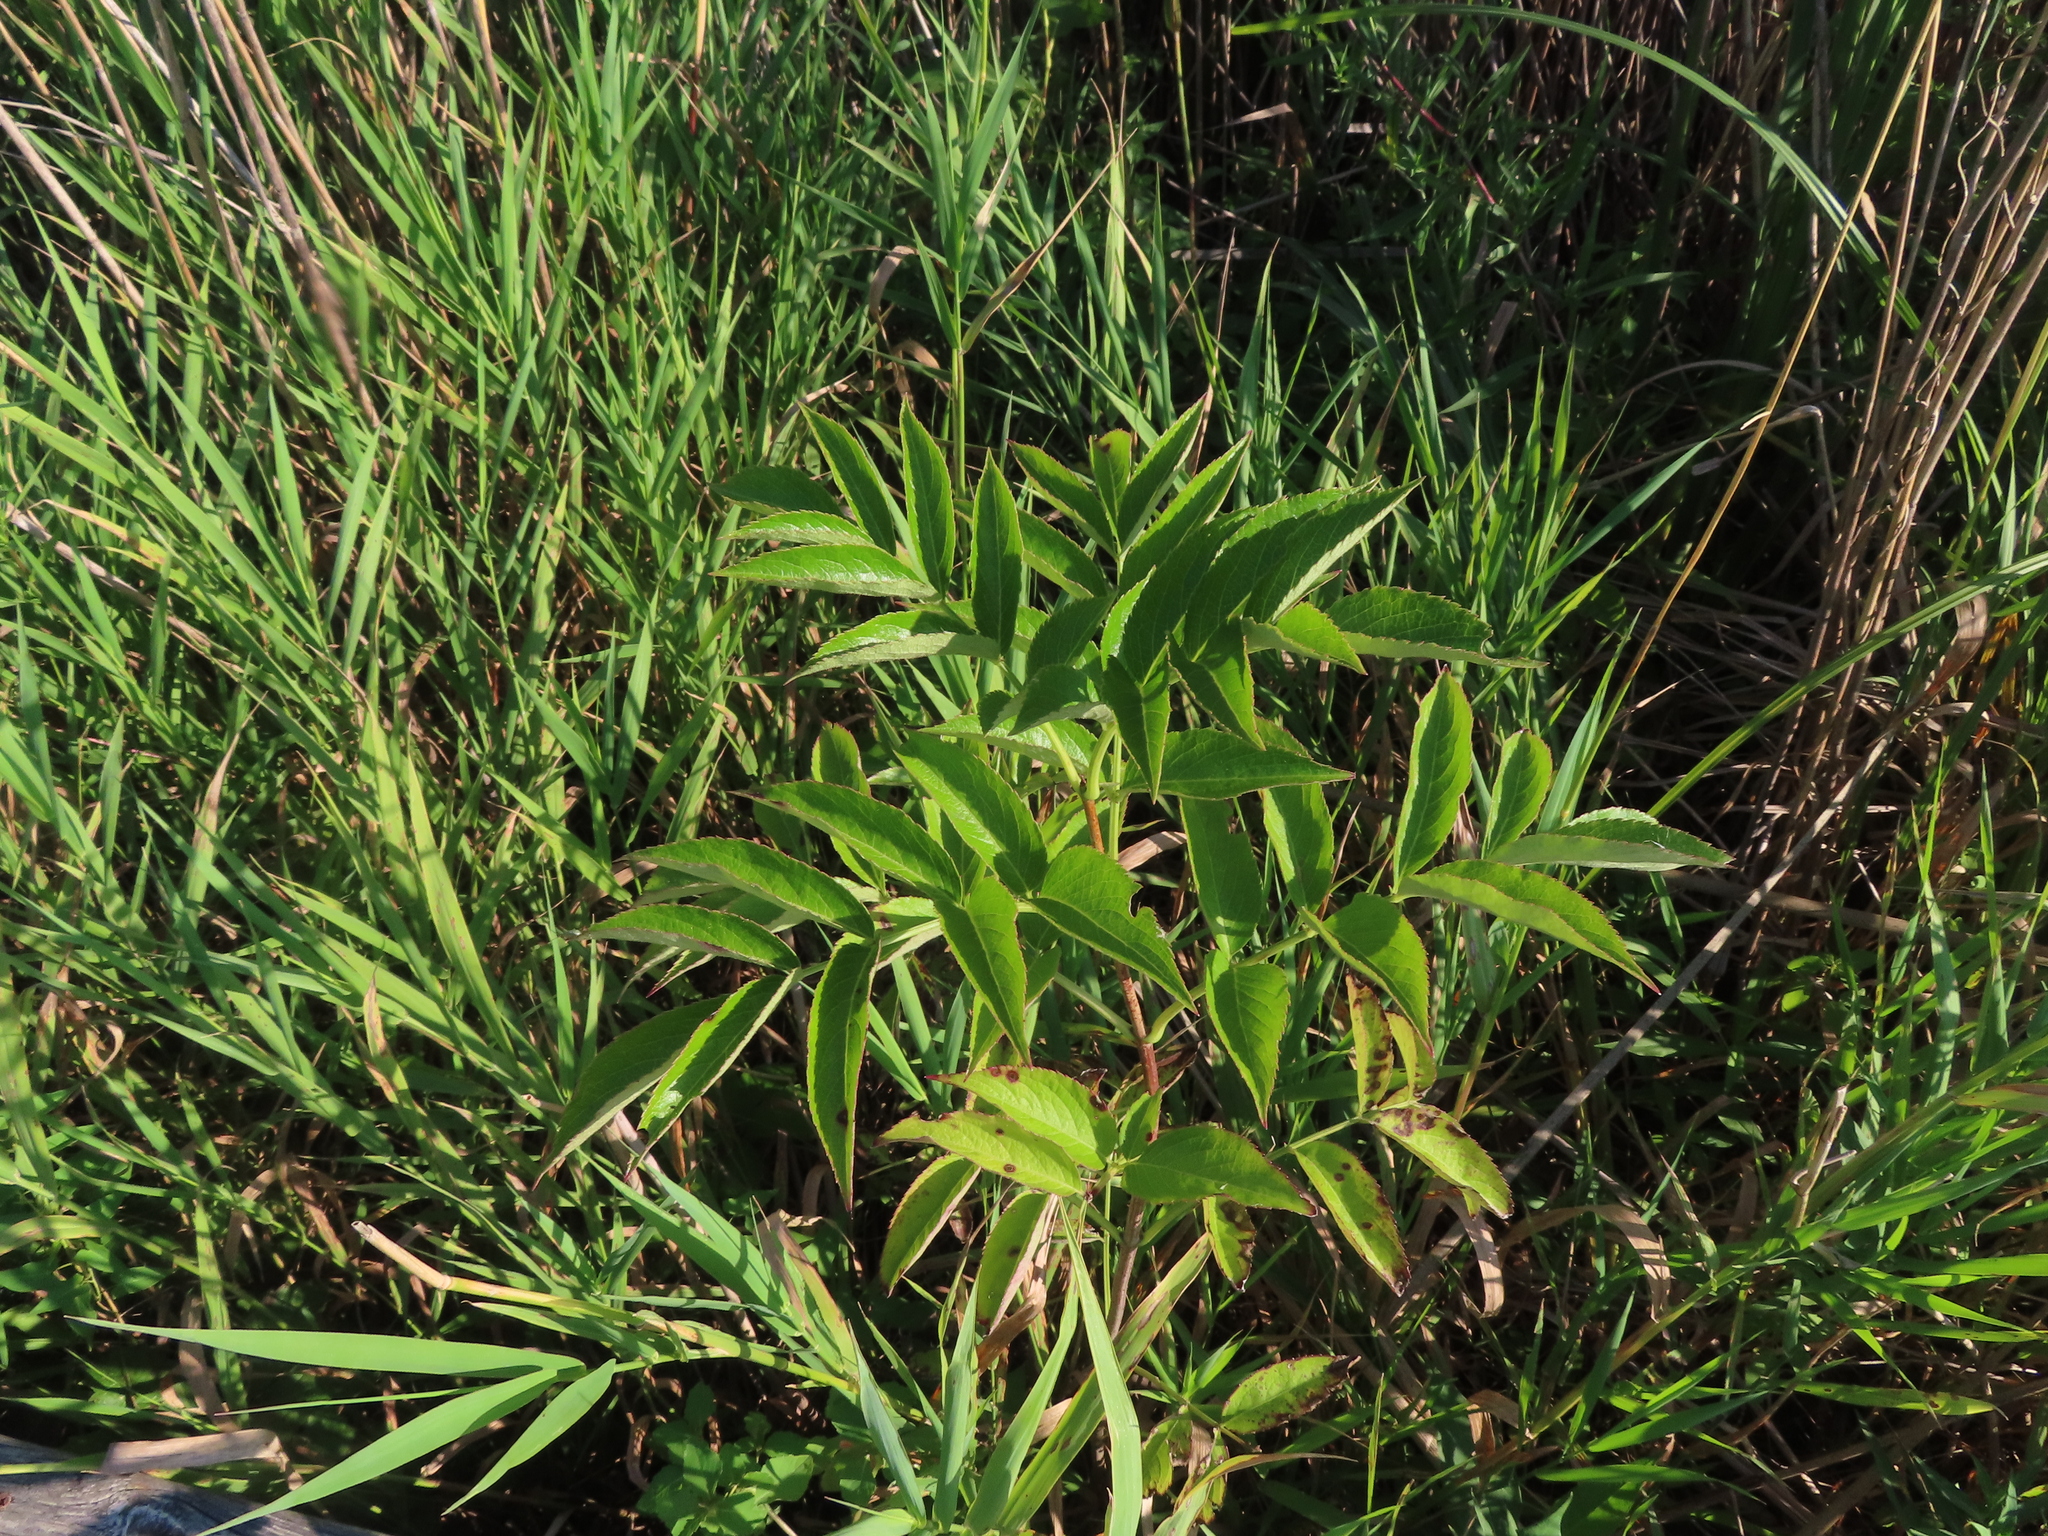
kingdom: Plantae
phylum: Tracheophyta
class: Magnoliopsida
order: Dipsacales
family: Viburnaceae
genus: Sambucus
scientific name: Sambucus canadensis
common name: American elder
